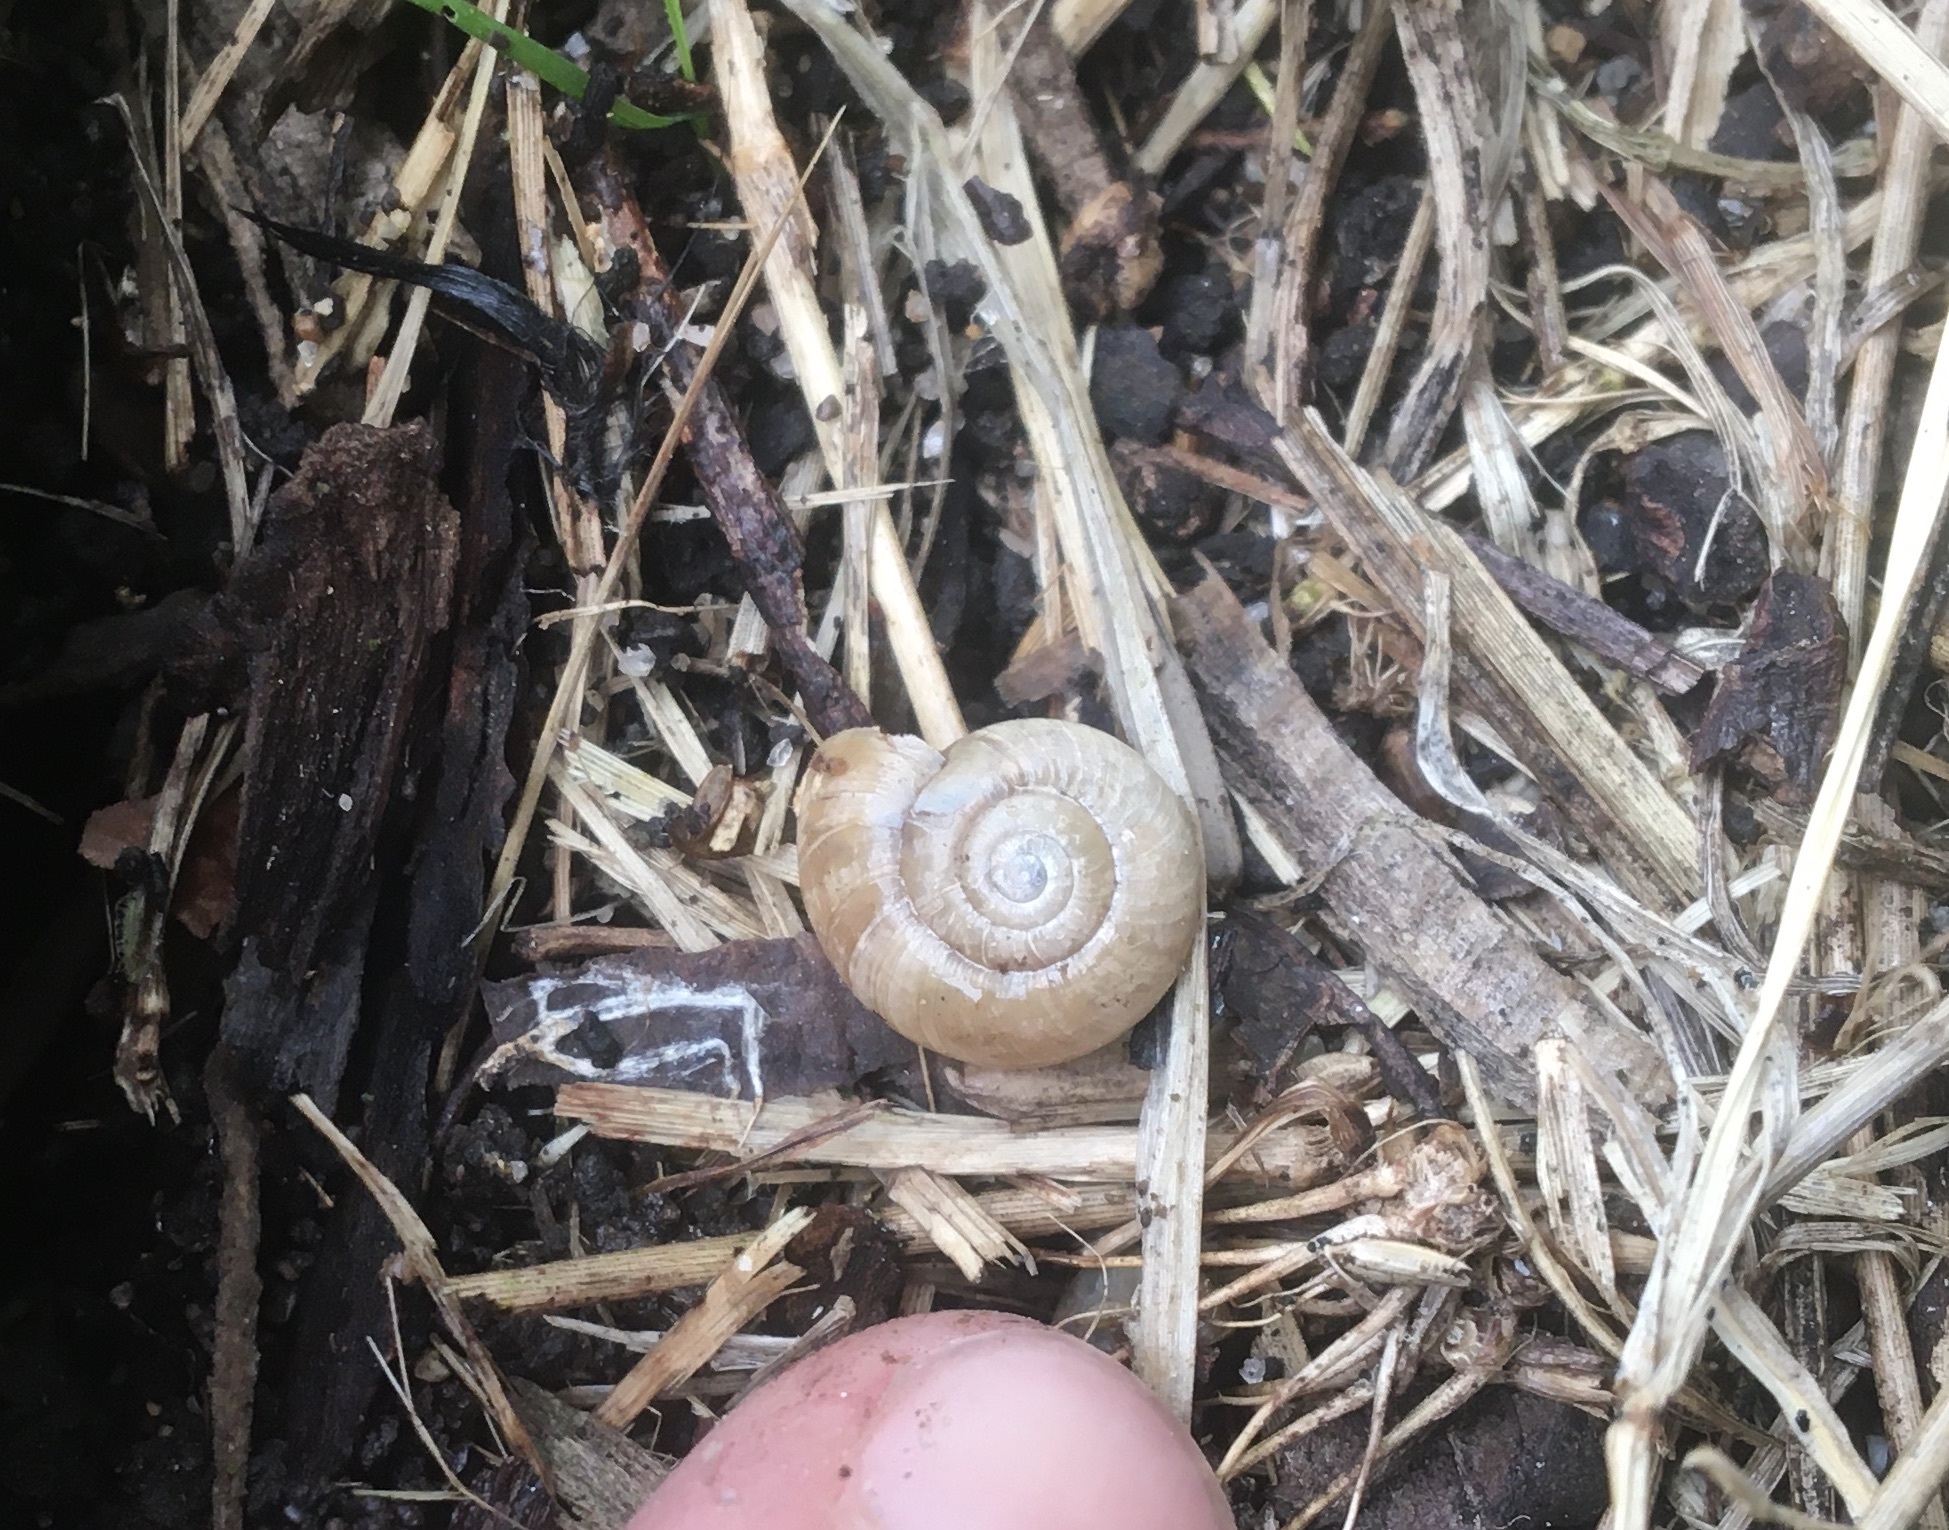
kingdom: Animalia
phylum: Mollusca
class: Gastropoda
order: Stylommatophora
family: Oxychilidae
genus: Oxychilus
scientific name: Oxychilus draparnaudi
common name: Draparnaud's glass snail
